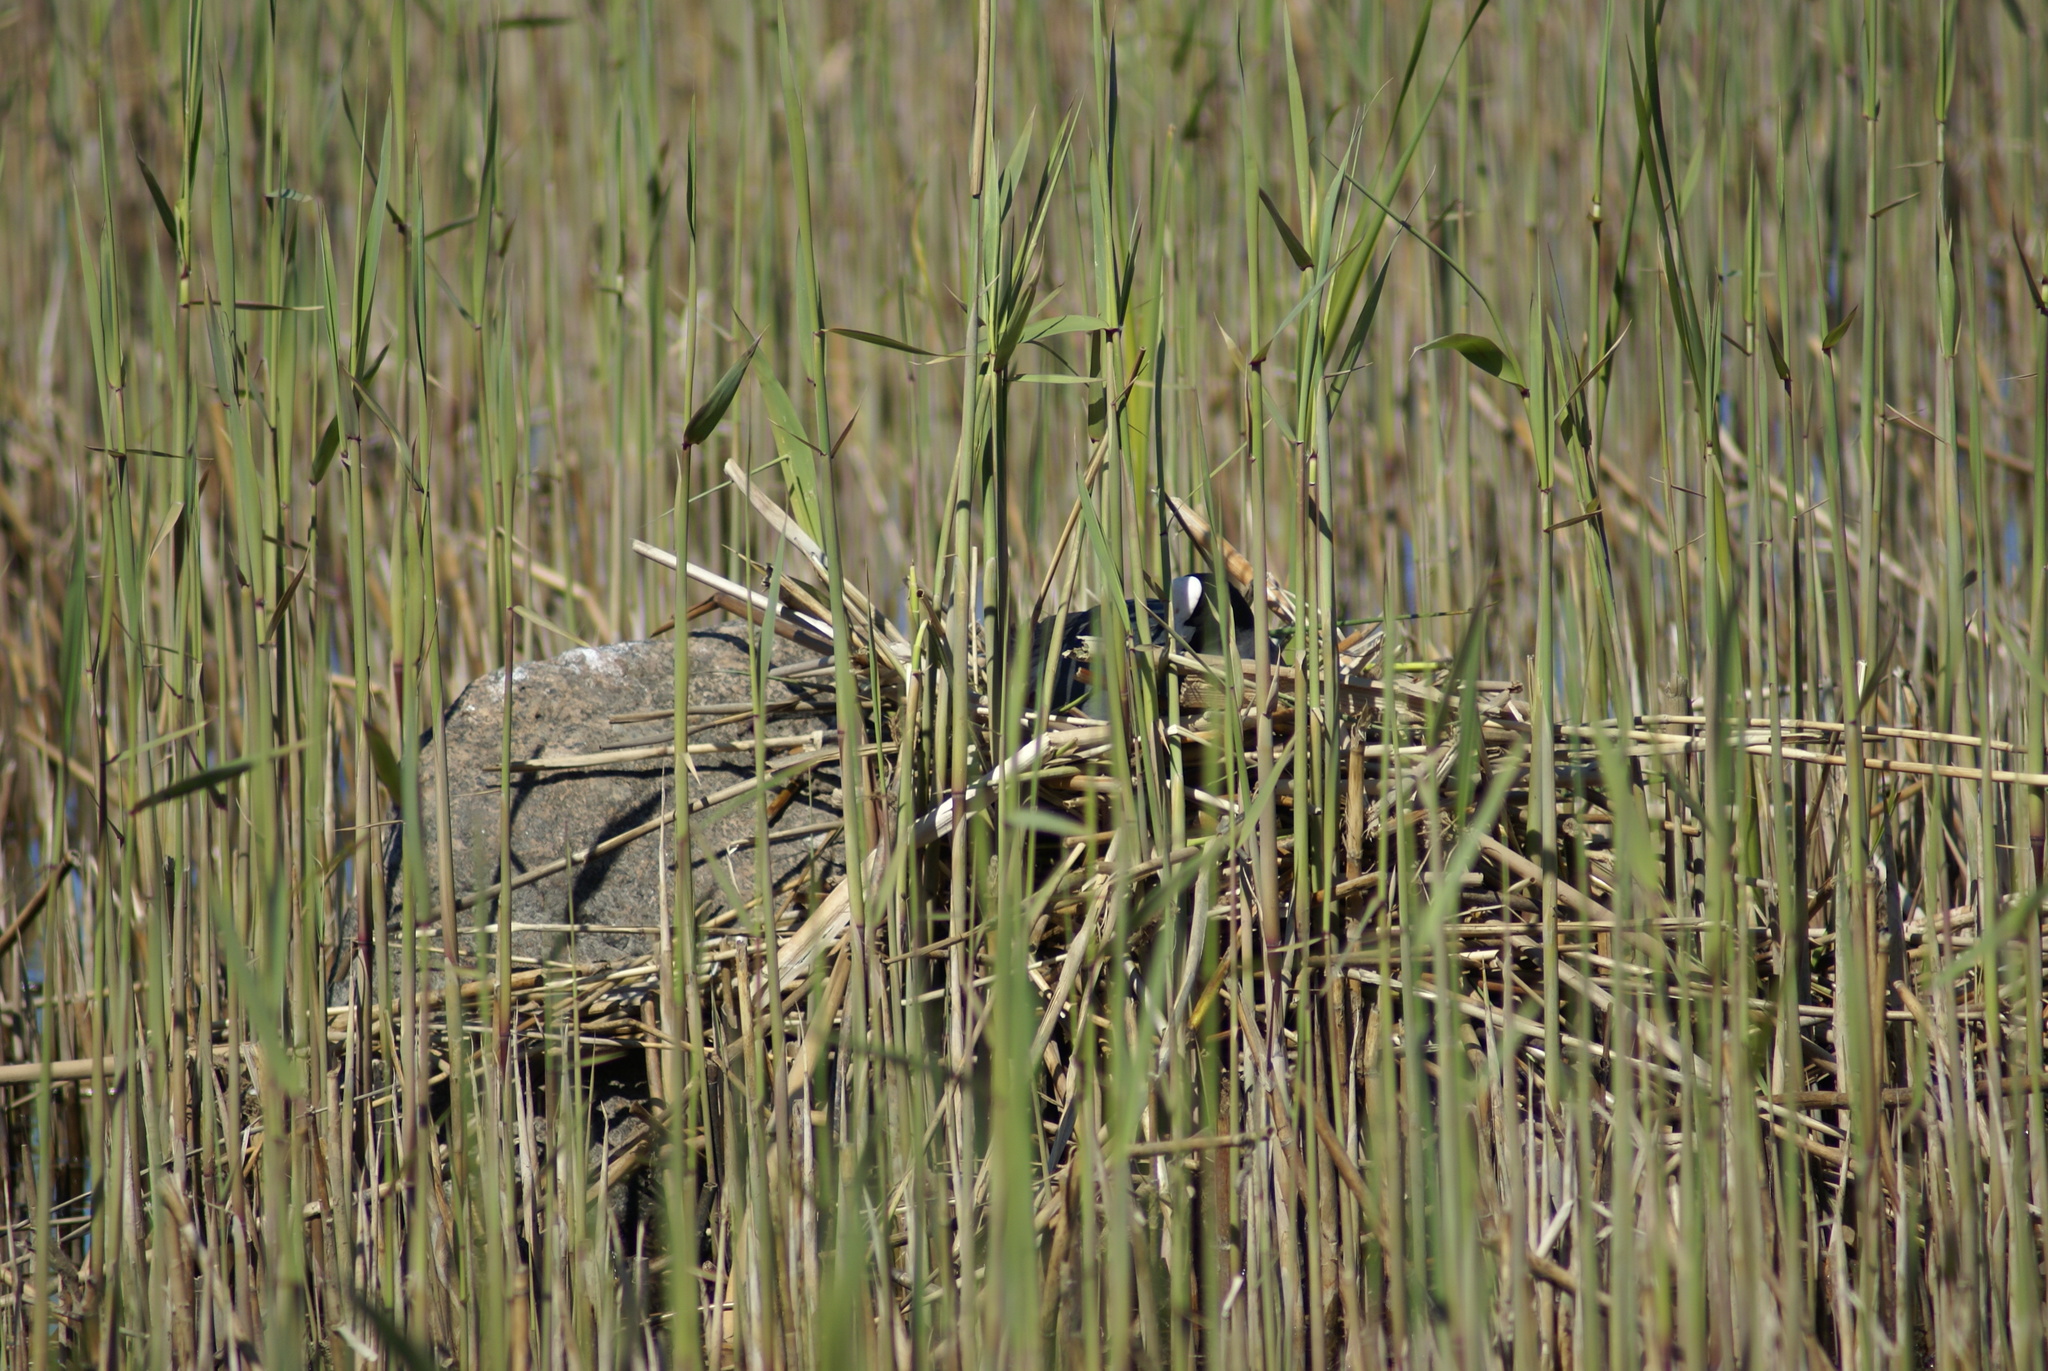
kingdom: Animalia
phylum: Chordata
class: Aves
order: Gruiformes
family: Rallidae
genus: Fulica
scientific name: Fulica atra
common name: Eurasian coot
